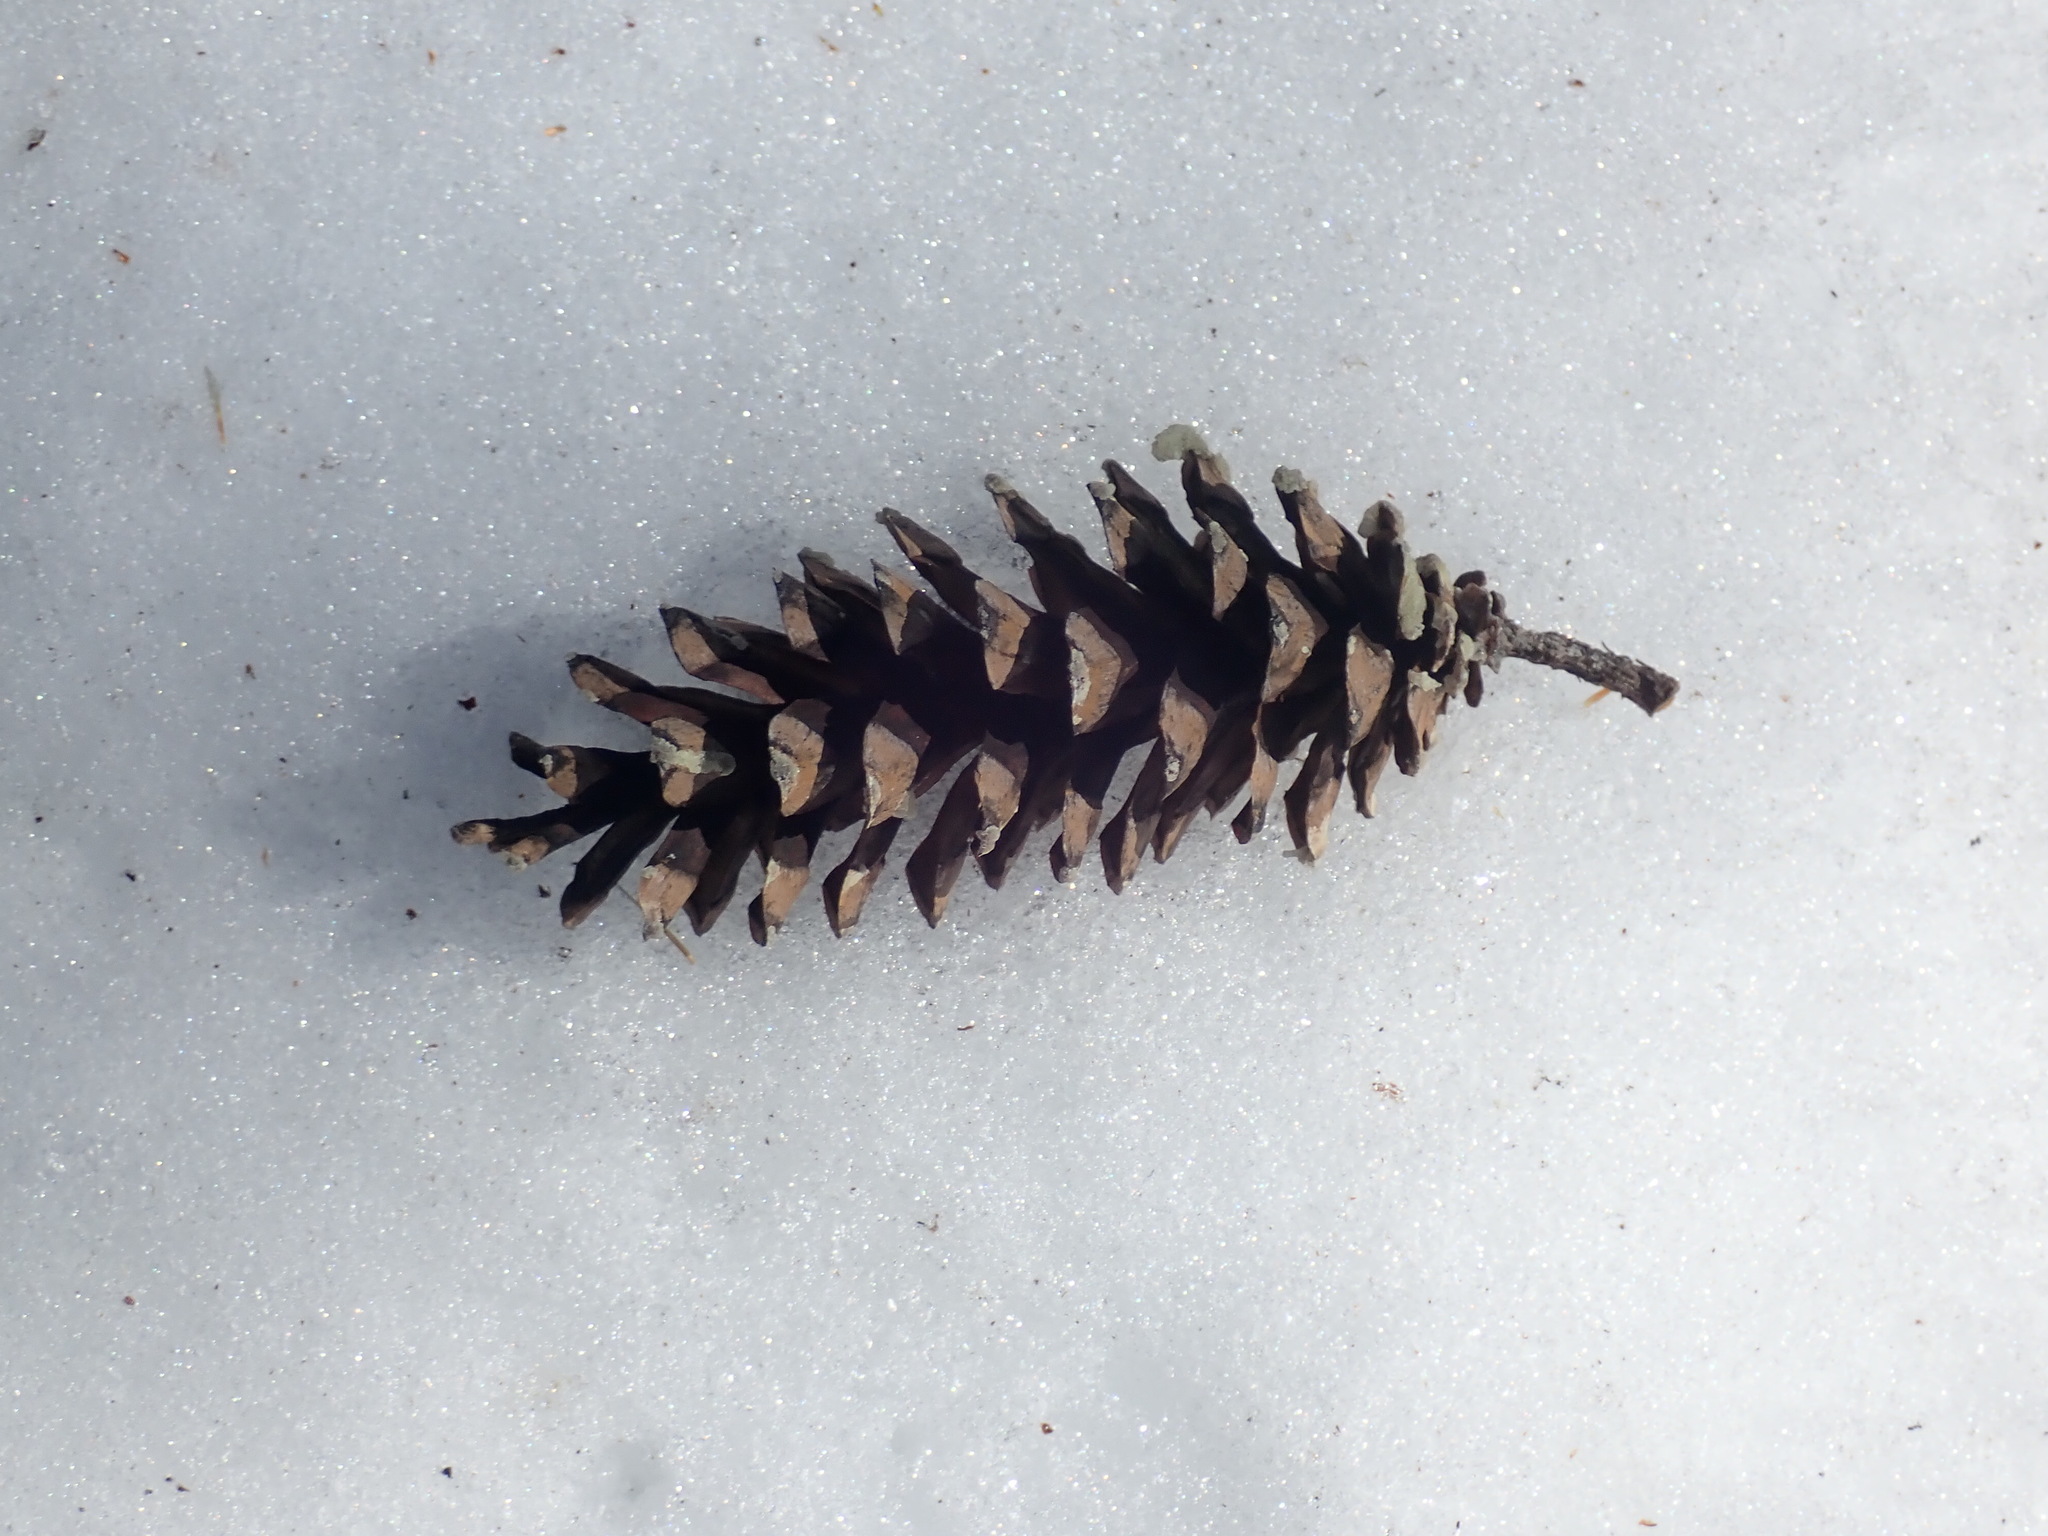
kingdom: Plantae
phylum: Tracheophyta
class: Pinopsida
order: Pinales
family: Pinaceae
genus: Pinus
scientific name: Pinus strobus
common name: Weymouth pine
